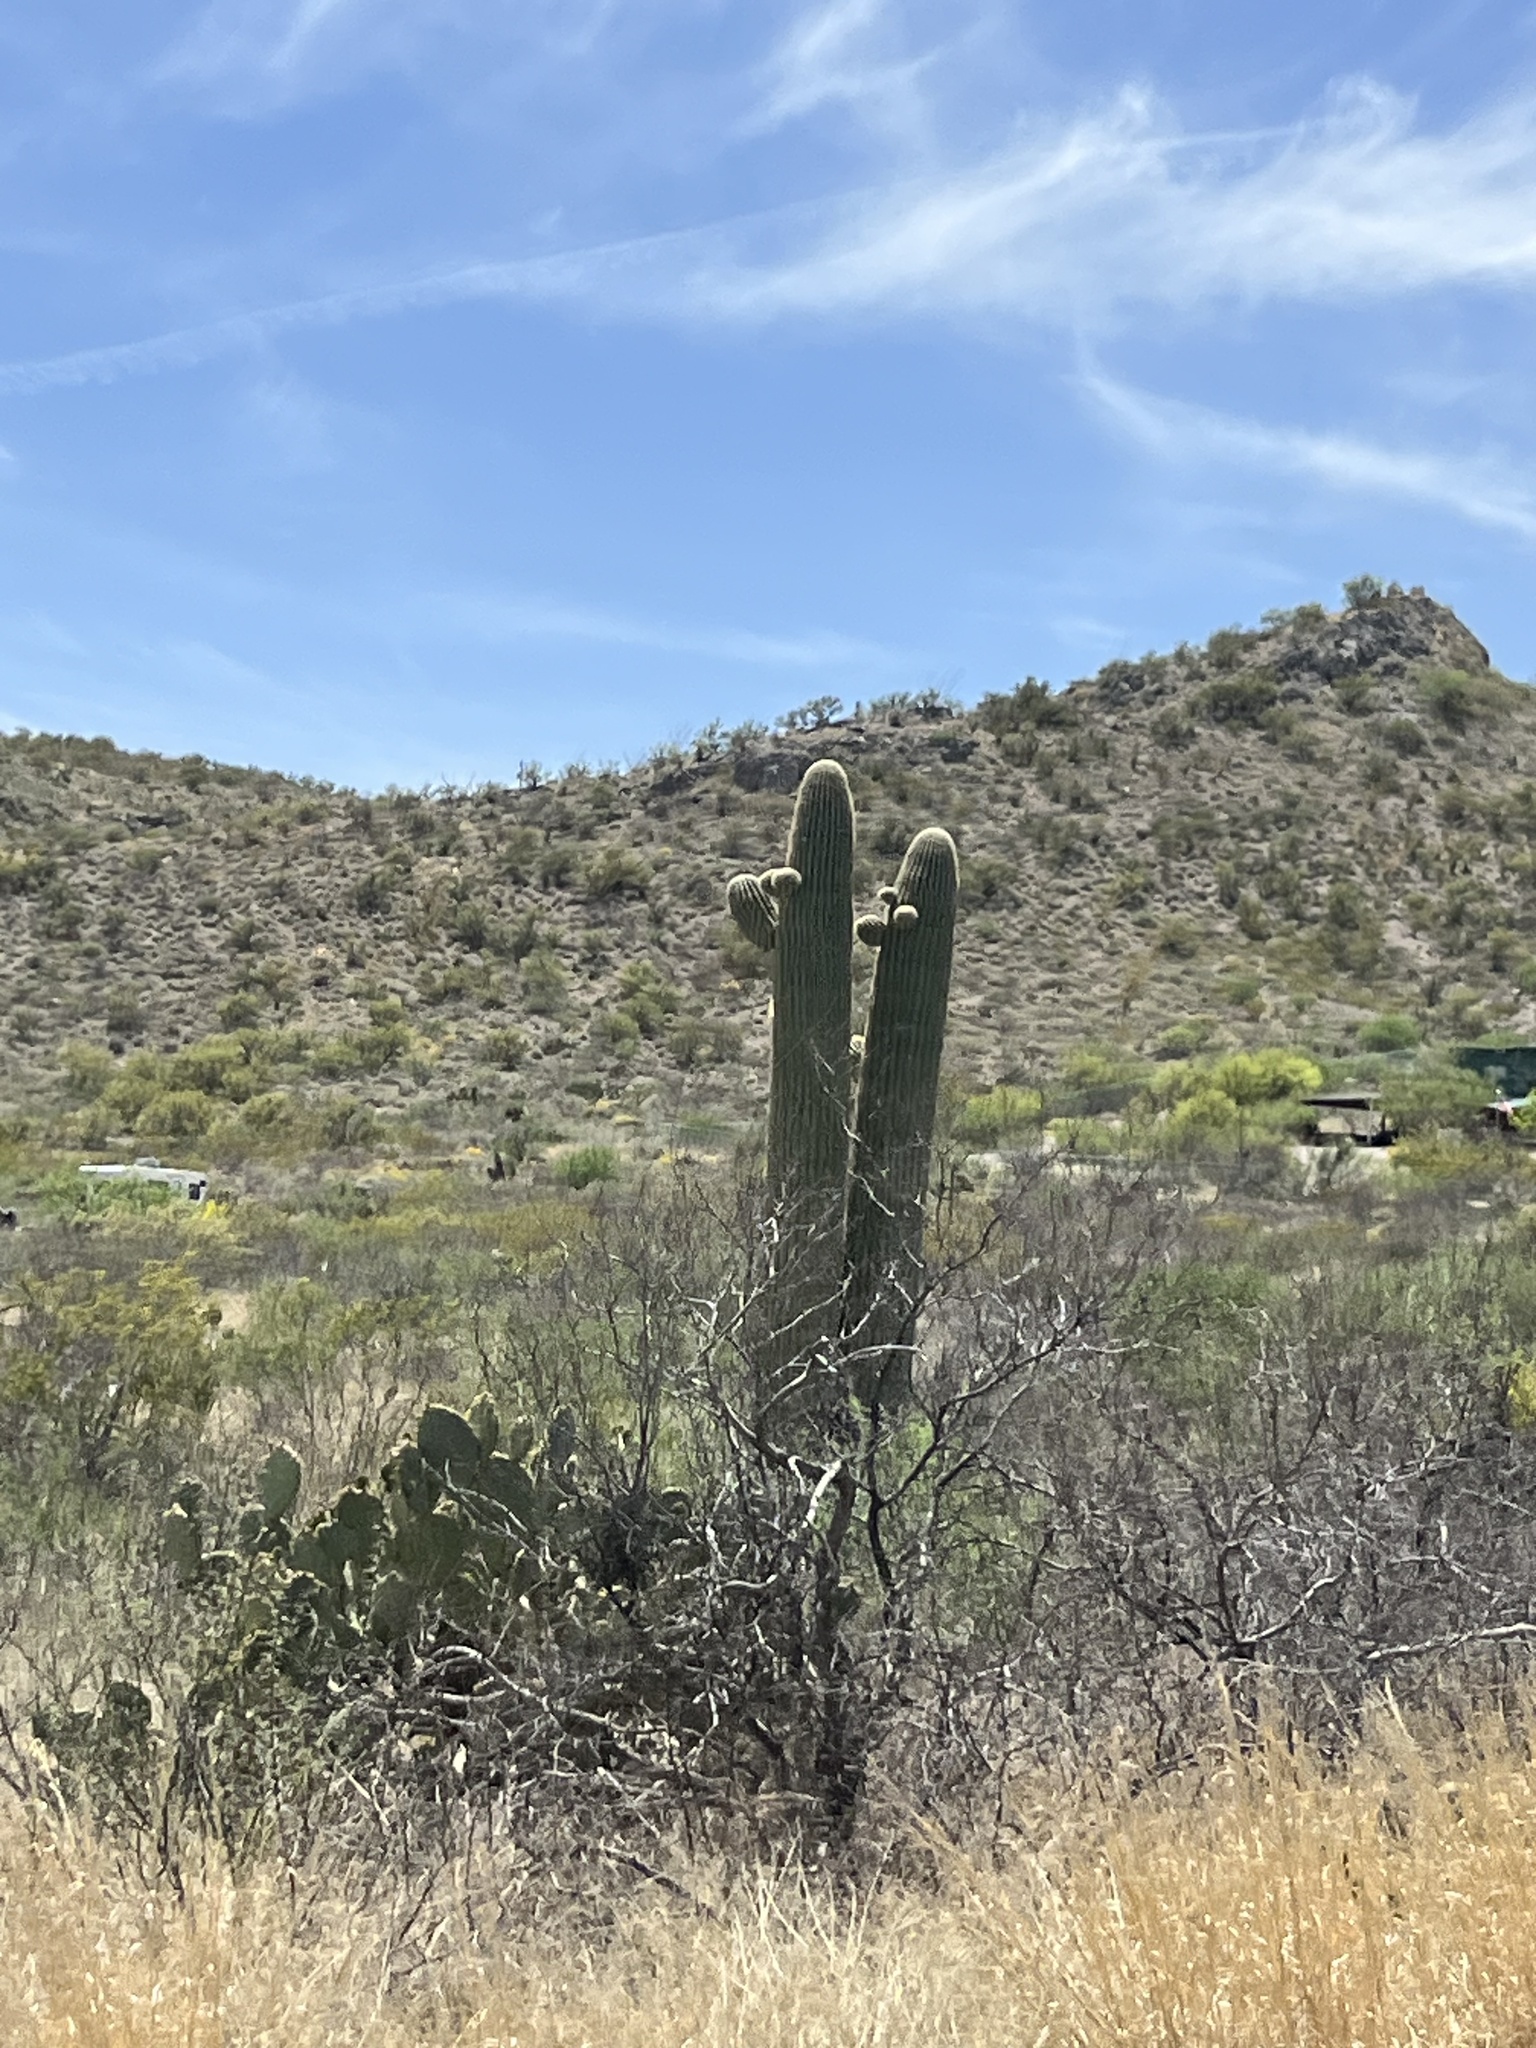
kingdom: Plantae
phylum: Tracheophyta
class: Magnoliopsida
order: Caryophyllales
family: Cactaceae
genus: Carnegiea
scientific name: Carnegiea gigantea
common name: Saguaro
